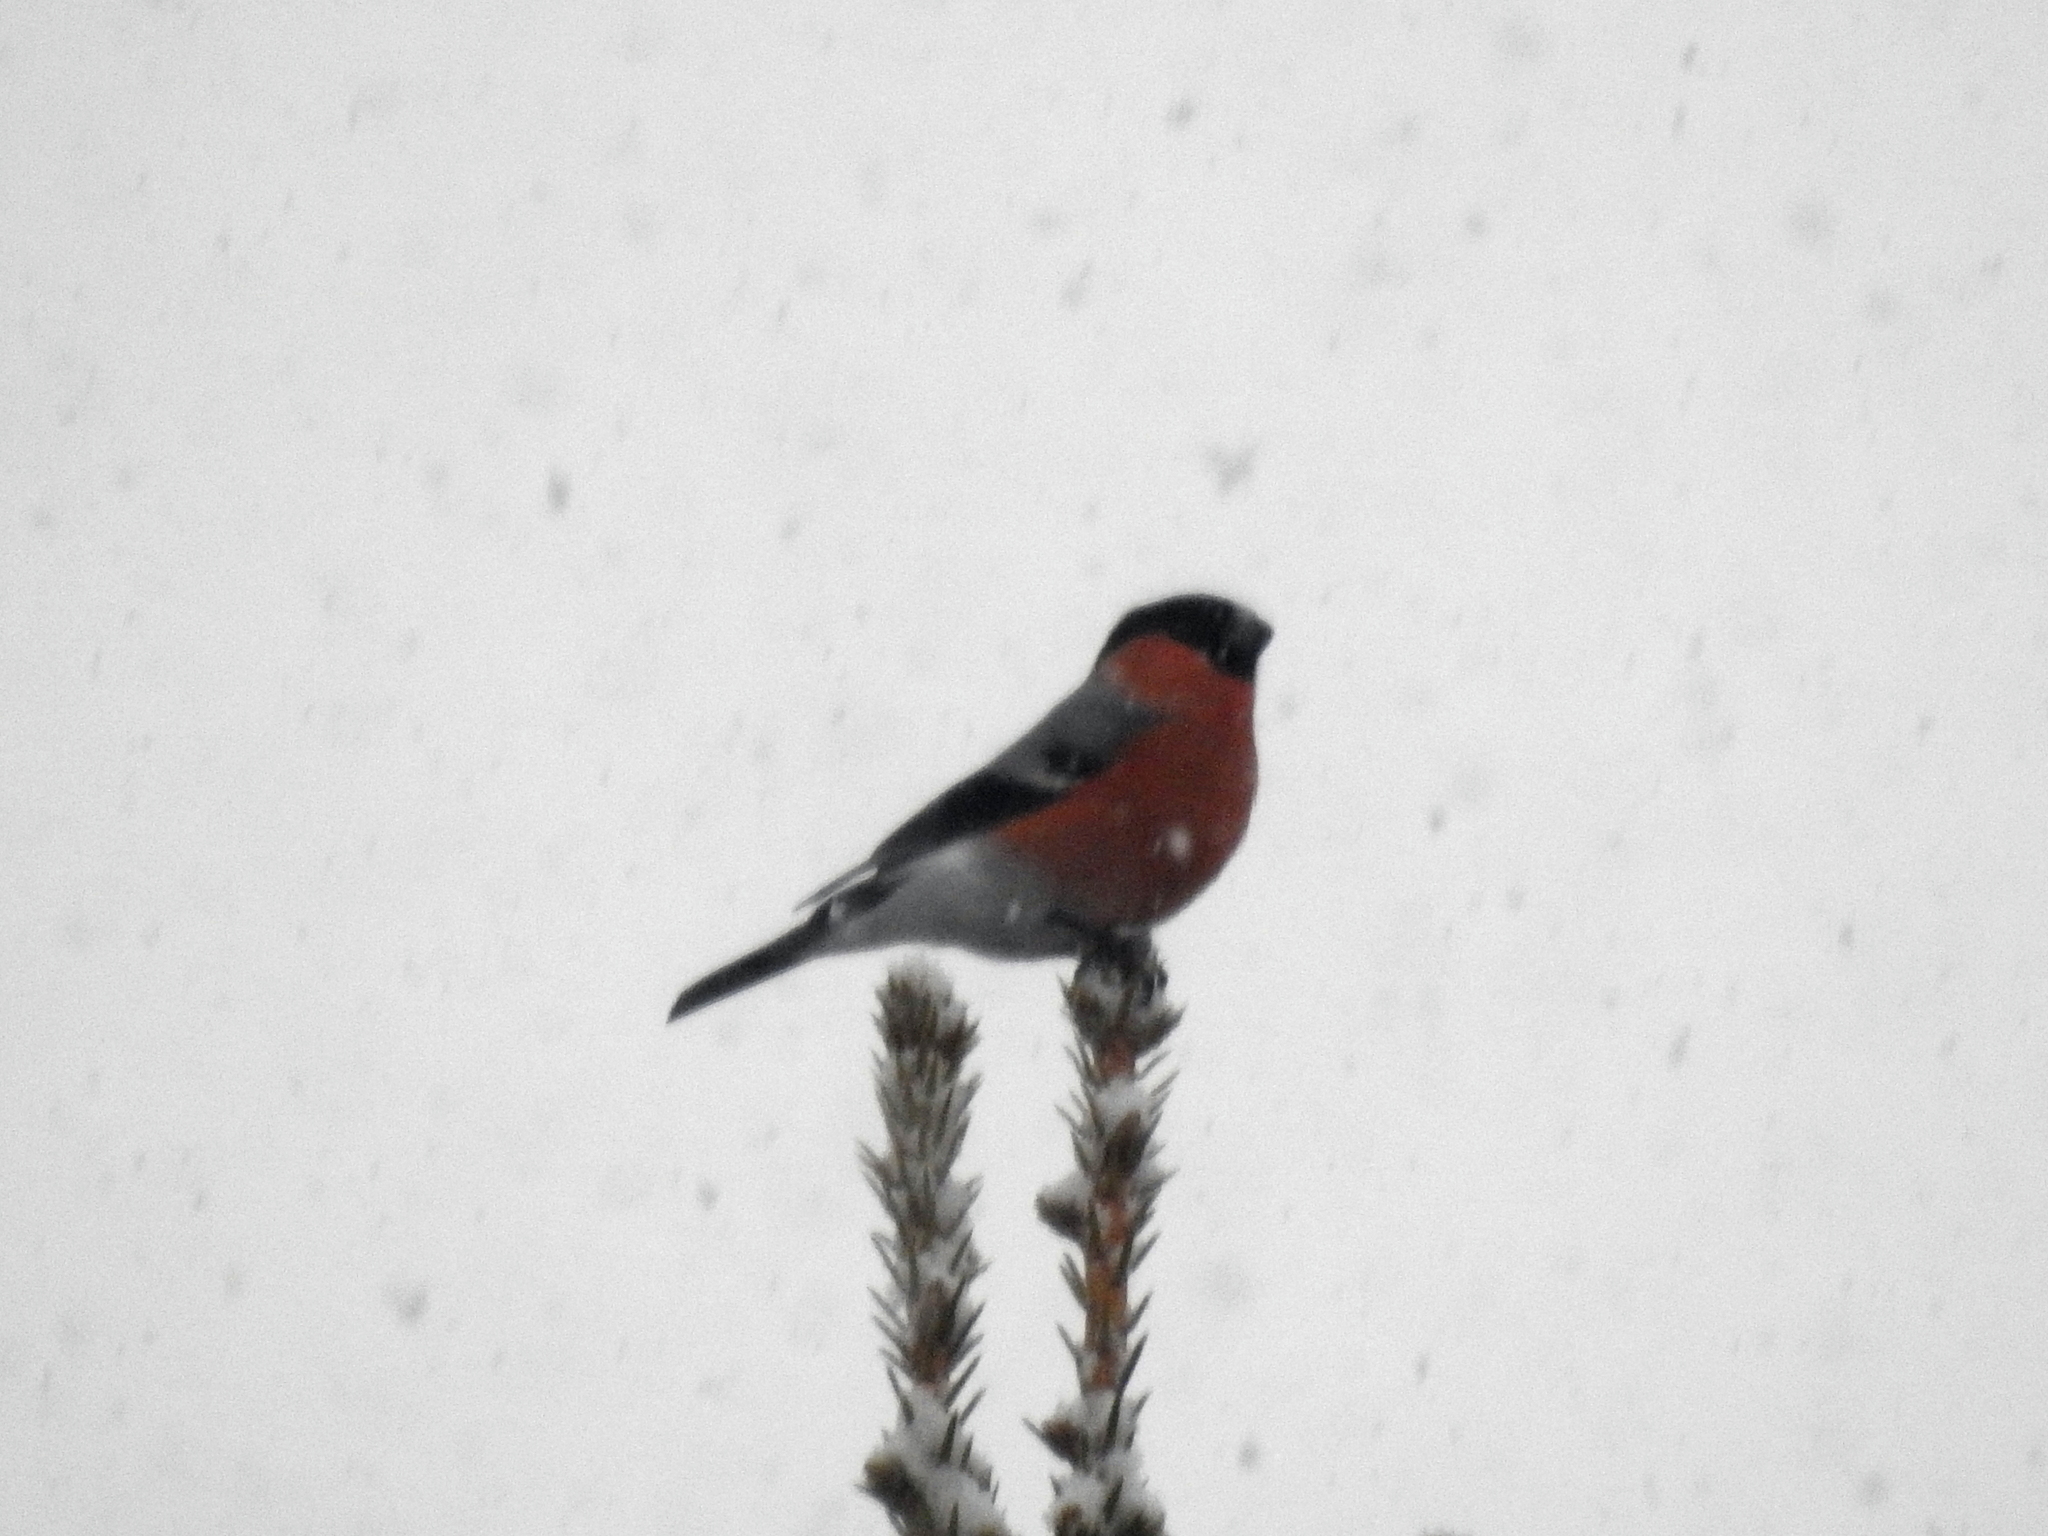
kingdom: Animalia
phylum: Chordata
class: Aves
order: Passeriformes
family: Fringillidae
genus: Pyrrhula
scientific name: Pyrrhula pyrrhula
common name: Eurasian bullfinch
